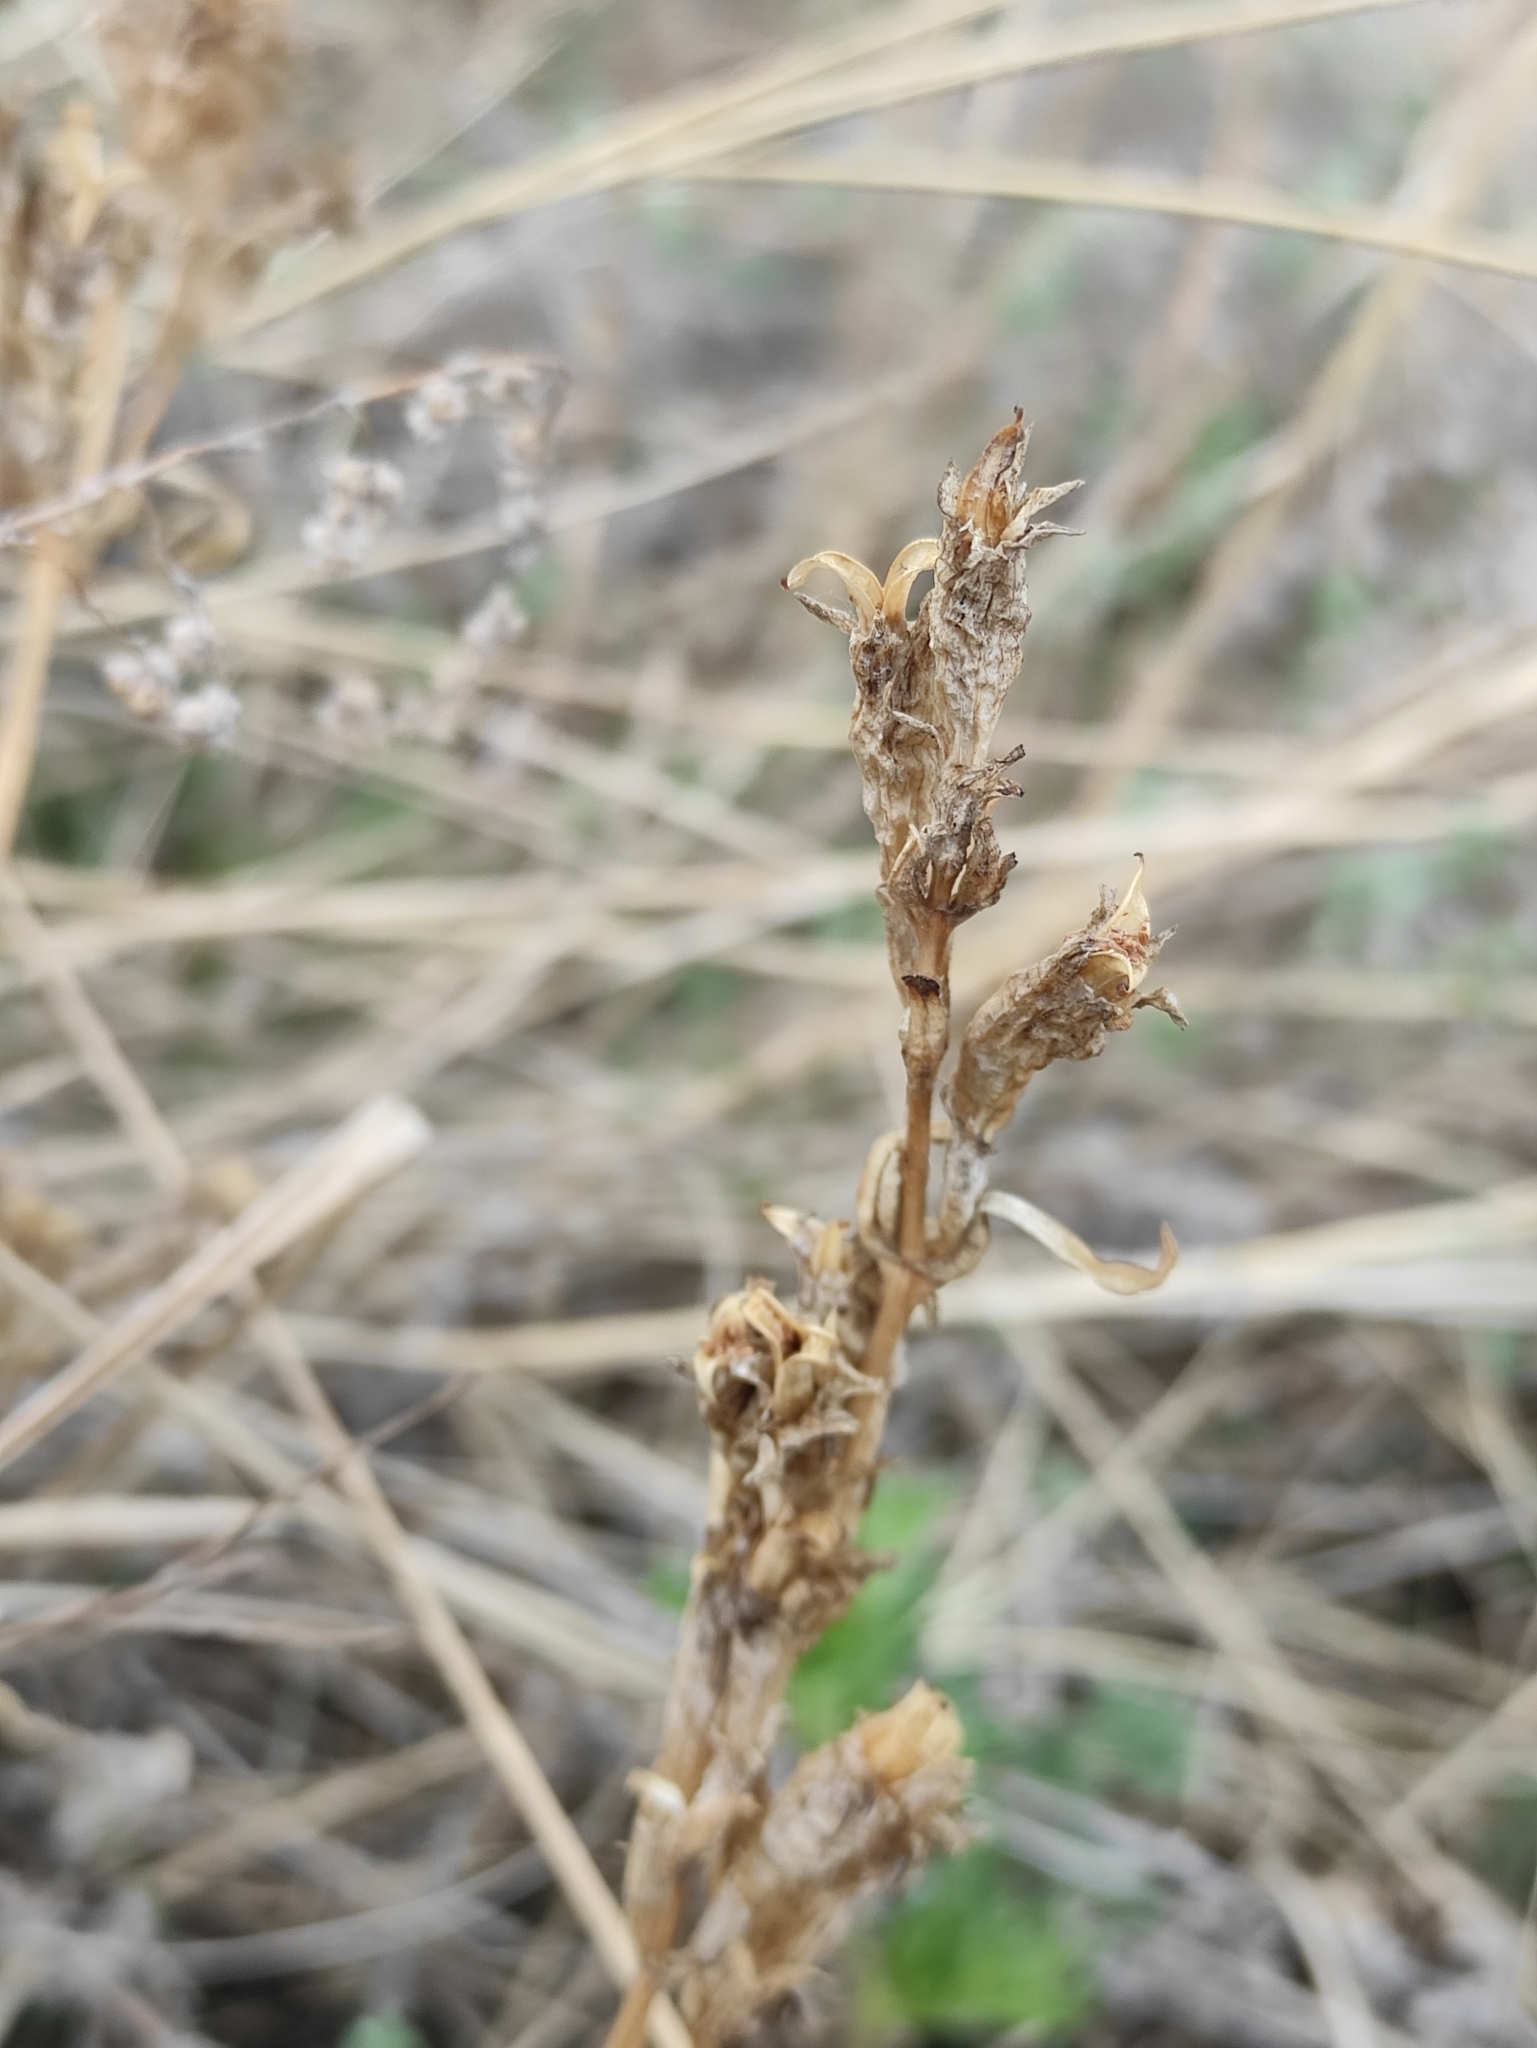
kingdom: Plantae
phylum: Tracheophyta
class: Magnoliopsida
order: Gentianales
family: Gentianaceae
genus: Gentiana
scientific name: Gentiana decumbens
